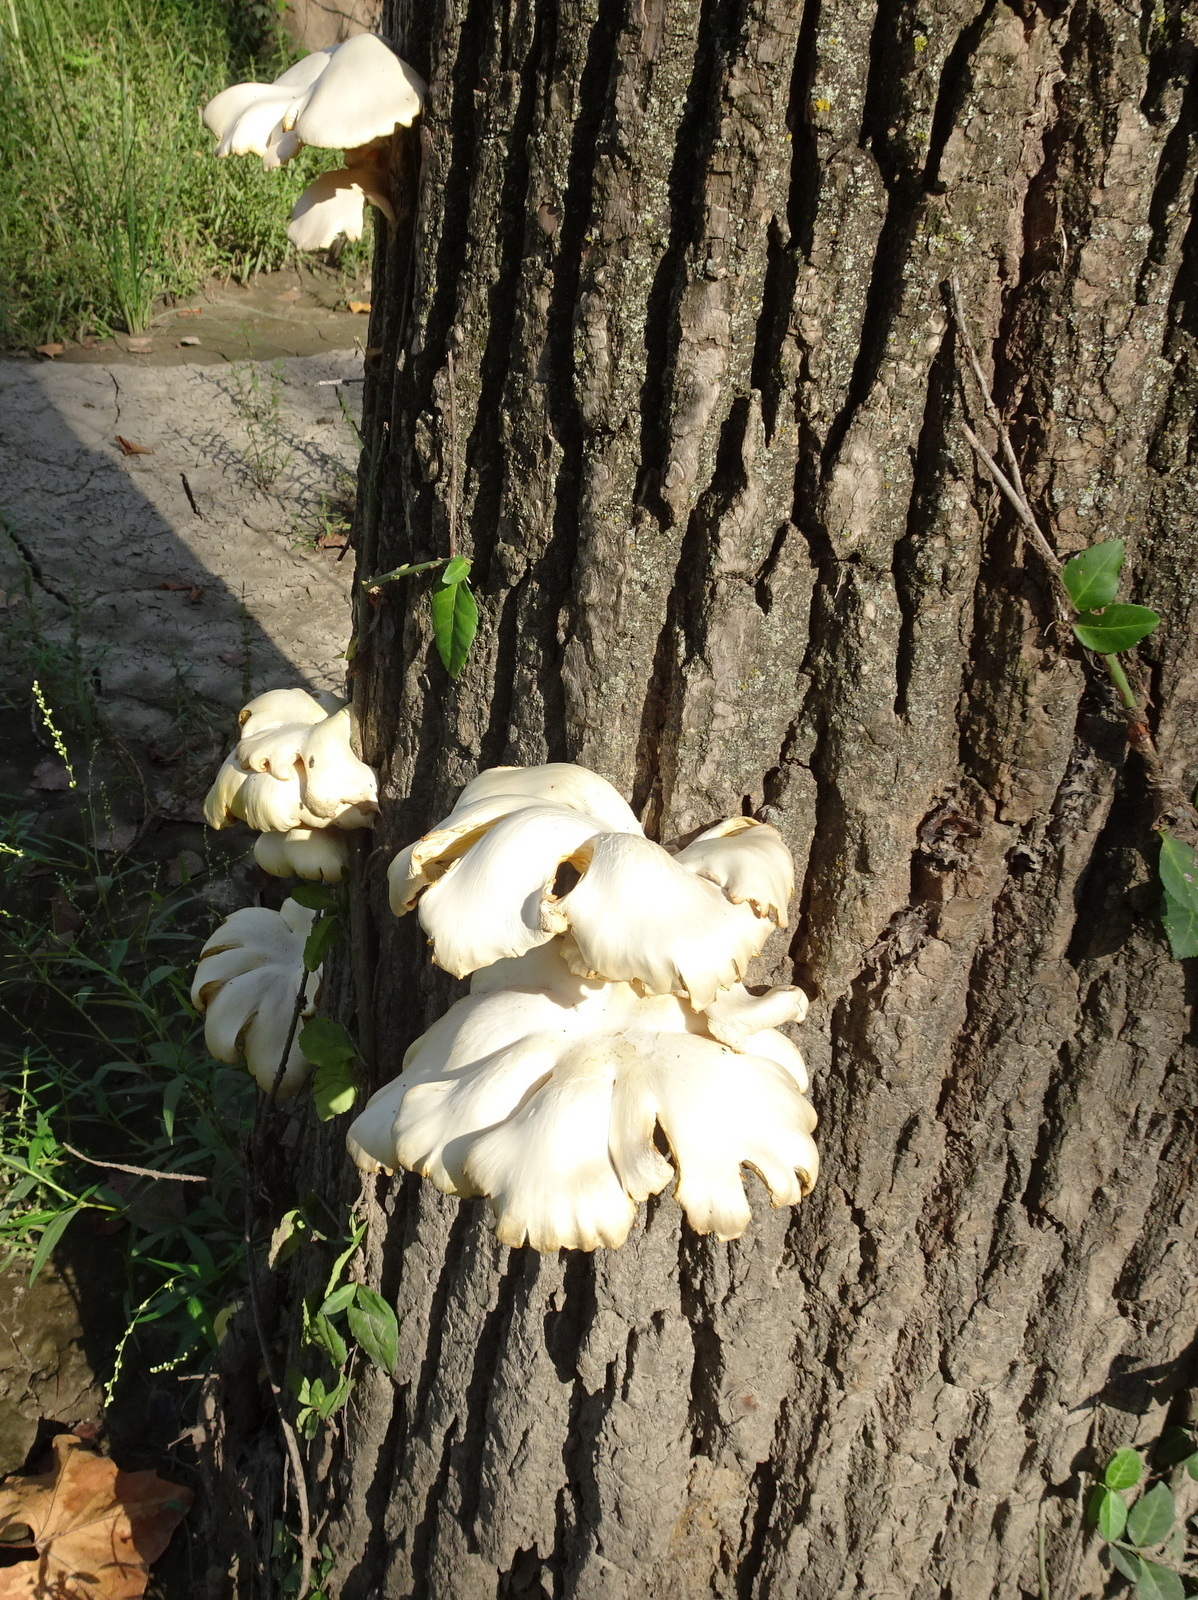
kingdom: Fungi
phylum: Basidiomycota
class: Agaricomycetes
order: Agaricales
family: Pleurotaceae
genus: Pleurotus
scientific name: Pleurotus ostreatus
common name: Oyster mushroom
